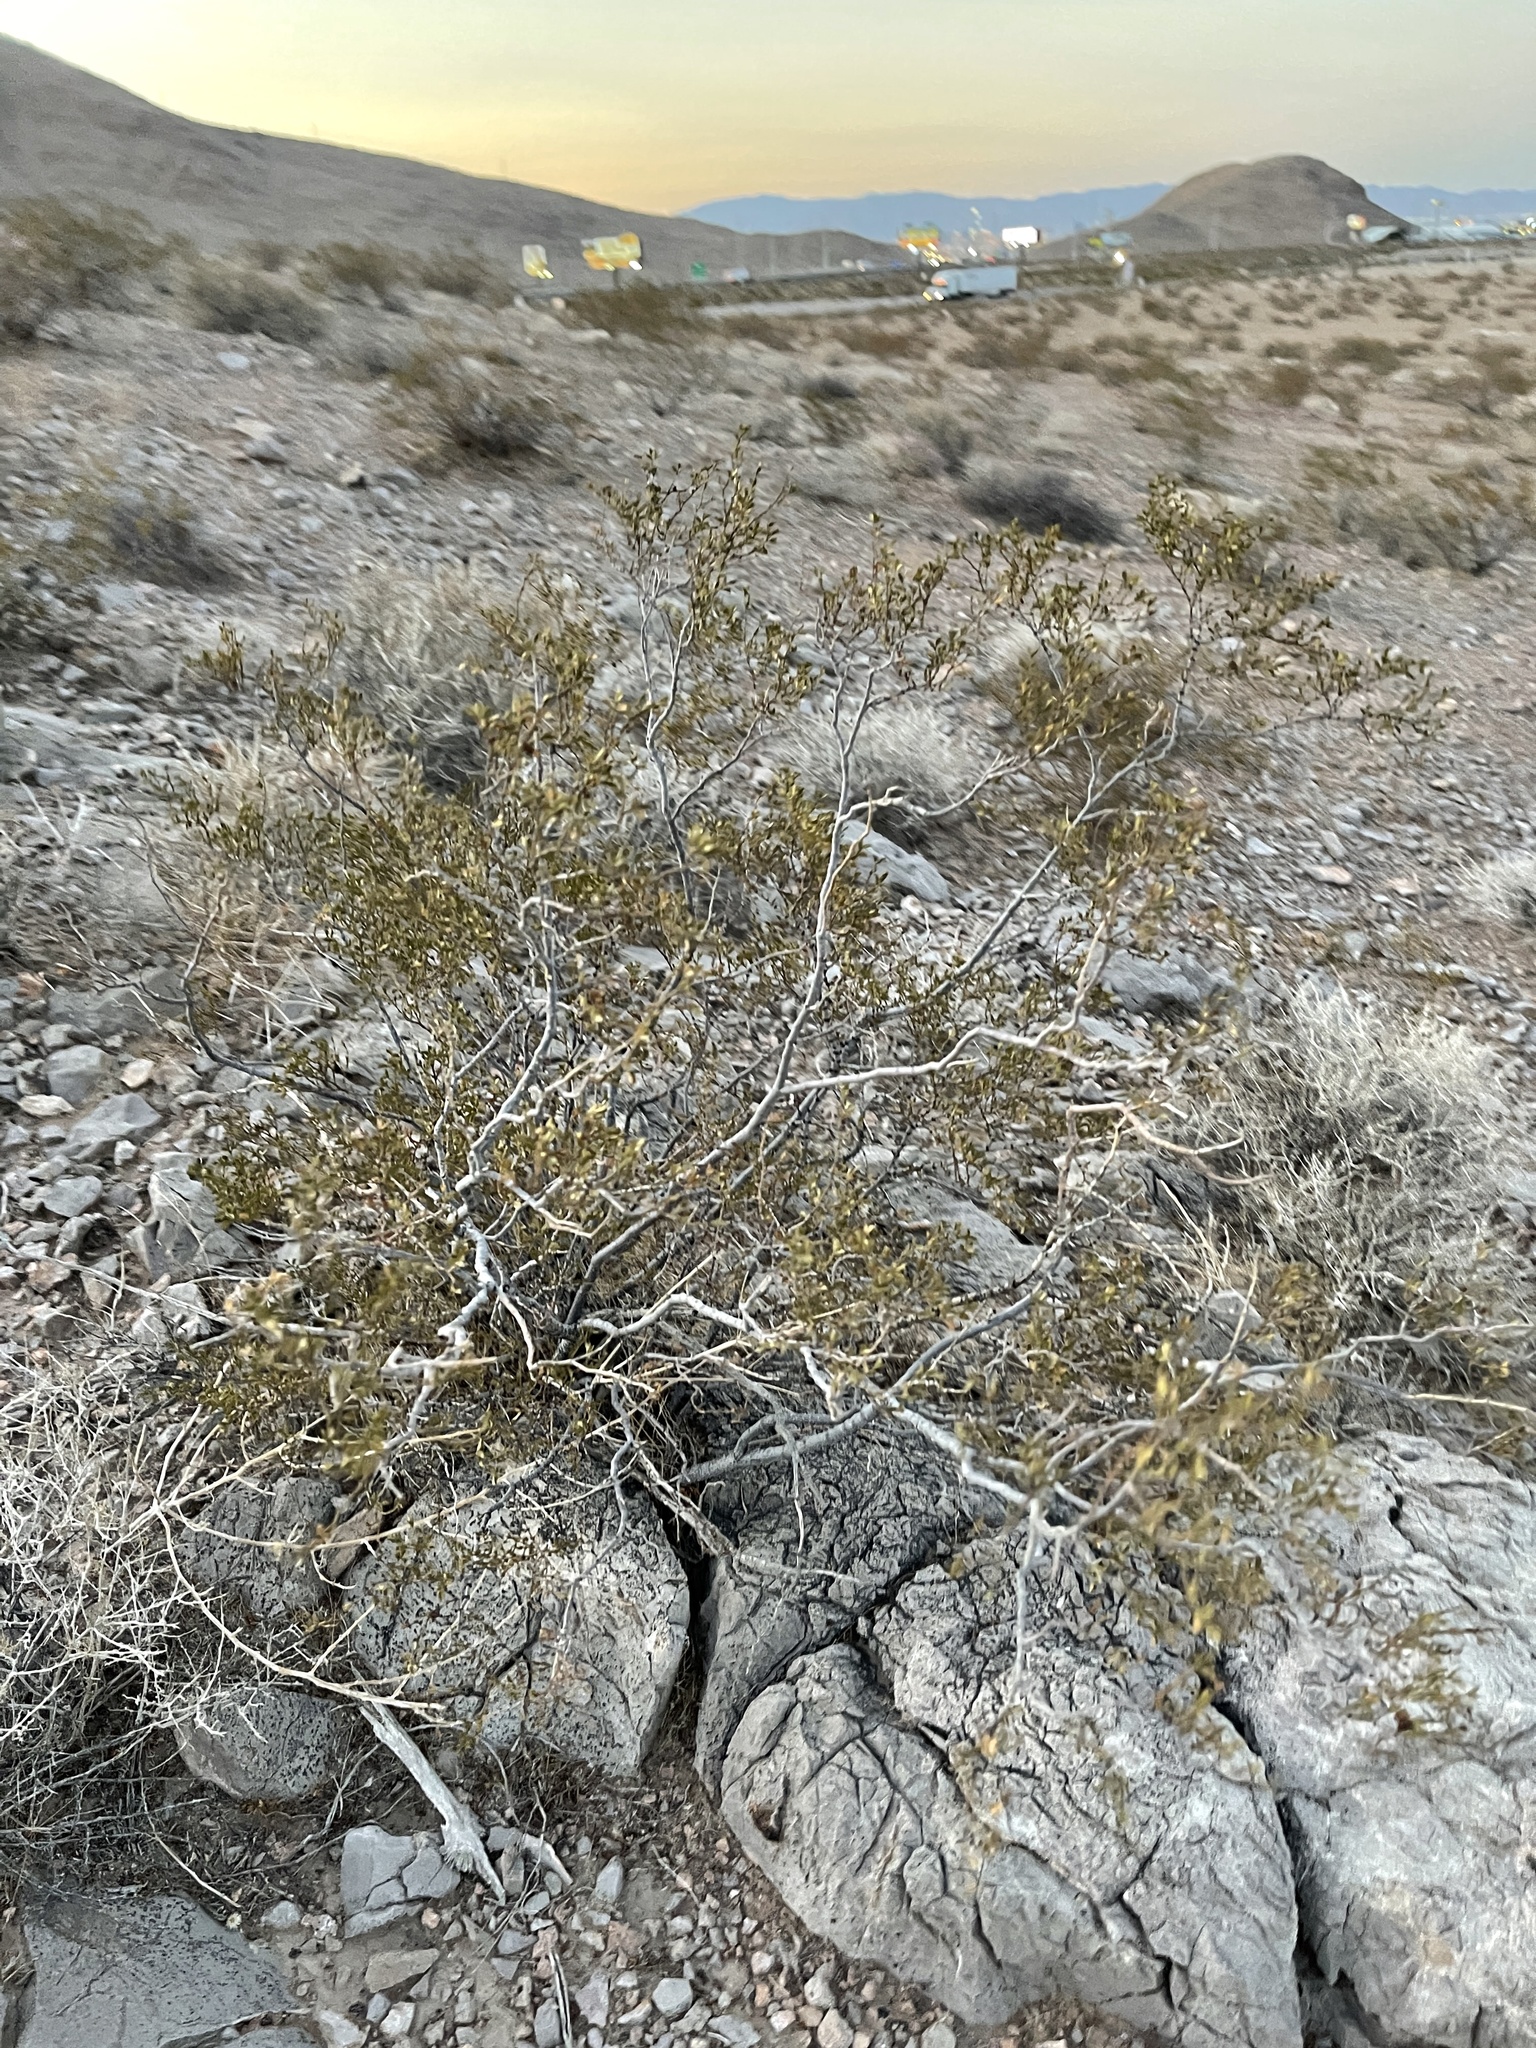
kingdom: Plantae
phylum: Tracheophyta
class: Magnoliopsida
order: Zygophyllales
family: Zygophyllaceae
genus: Larrea
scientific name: Larrea tridentata
